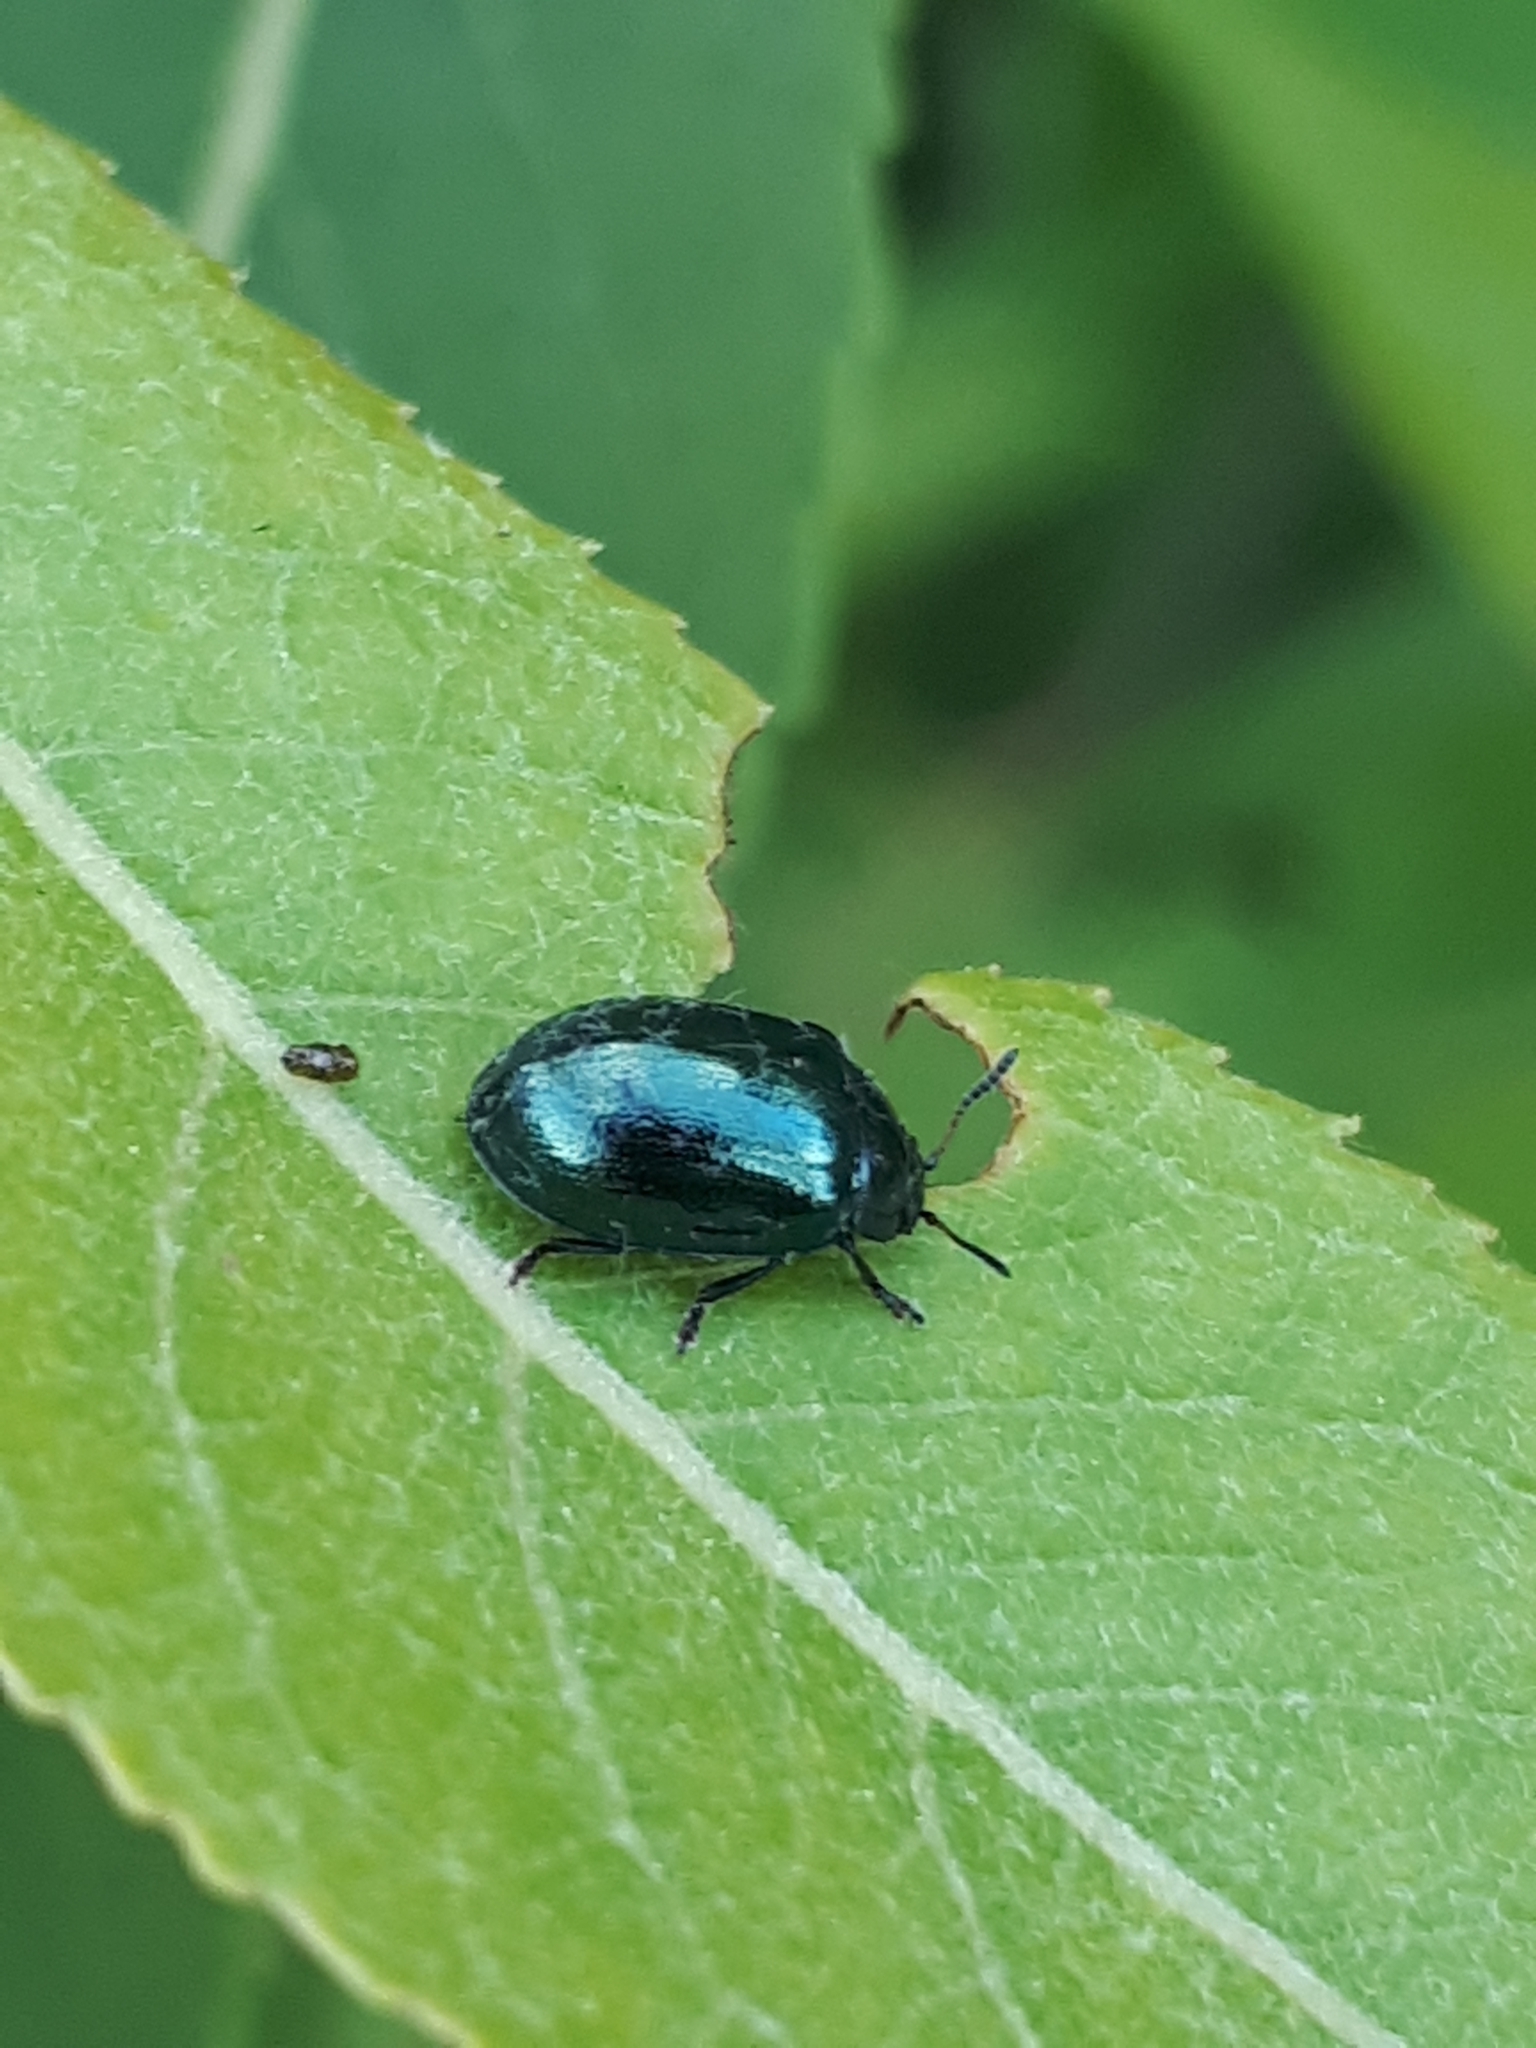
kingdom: Animalia
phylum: Arthropoda
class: Insecta
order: Coleoptera
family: Chrysomelidae
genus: Plagiodera
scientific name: Plagiodera versicolora
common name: Imported willow leaf beetle
